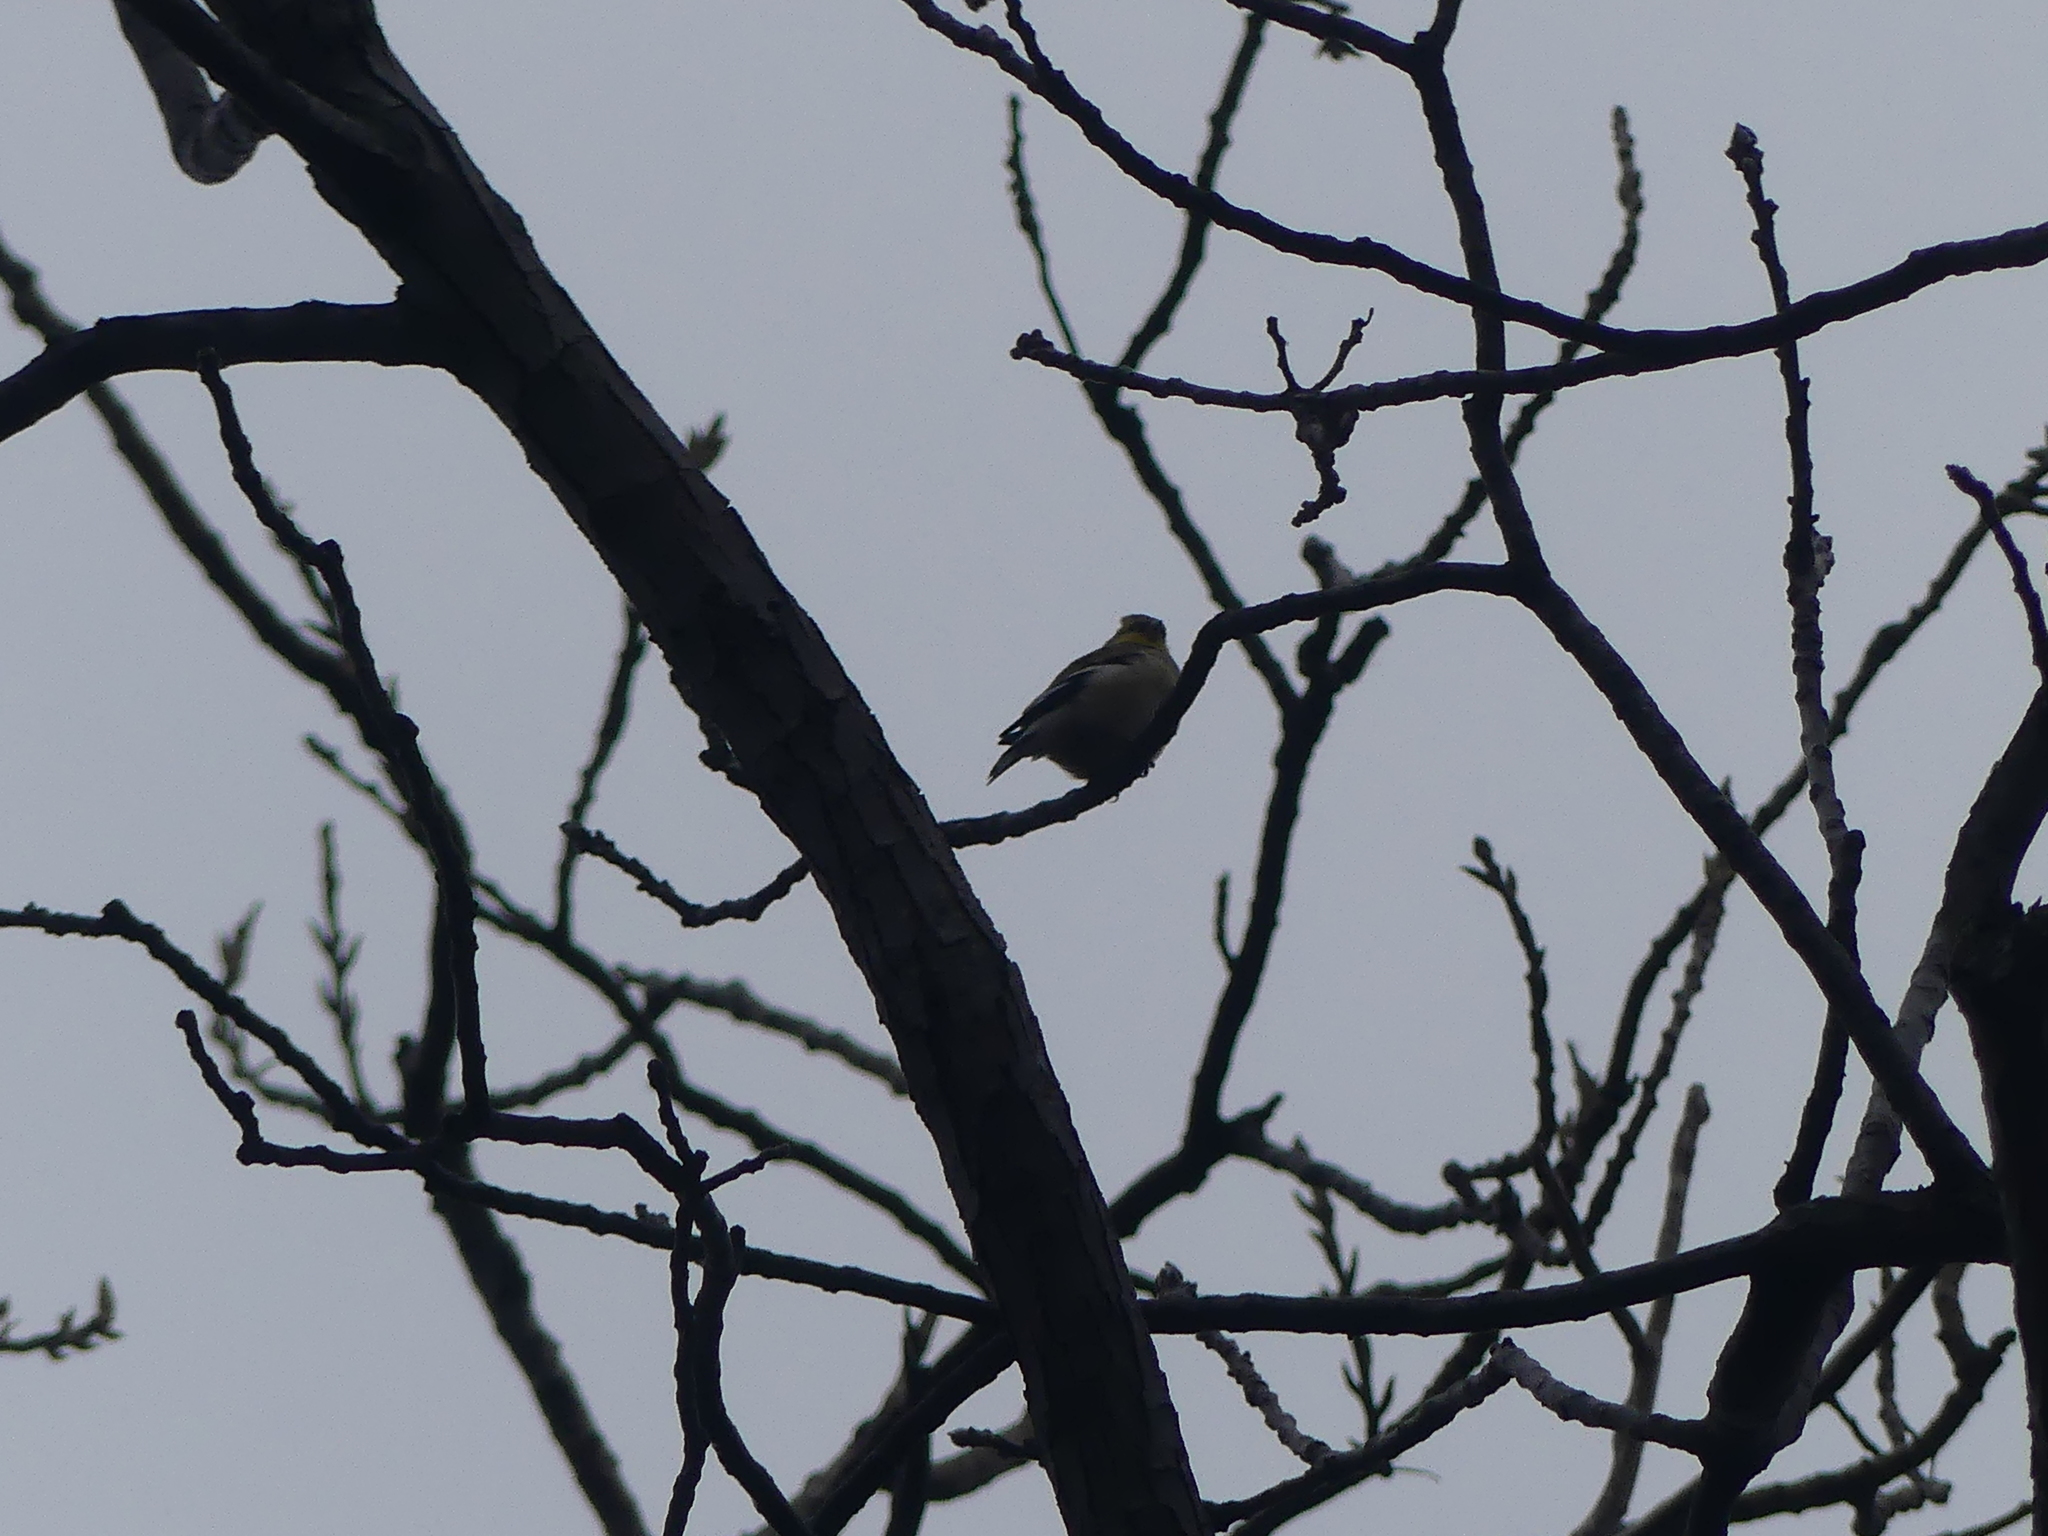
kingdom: Animalia
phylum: Chordata
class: Aves
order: Passeriformes
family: Fringillidae
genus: Spinus
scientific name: Spinus tristis
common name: American goldfinch
